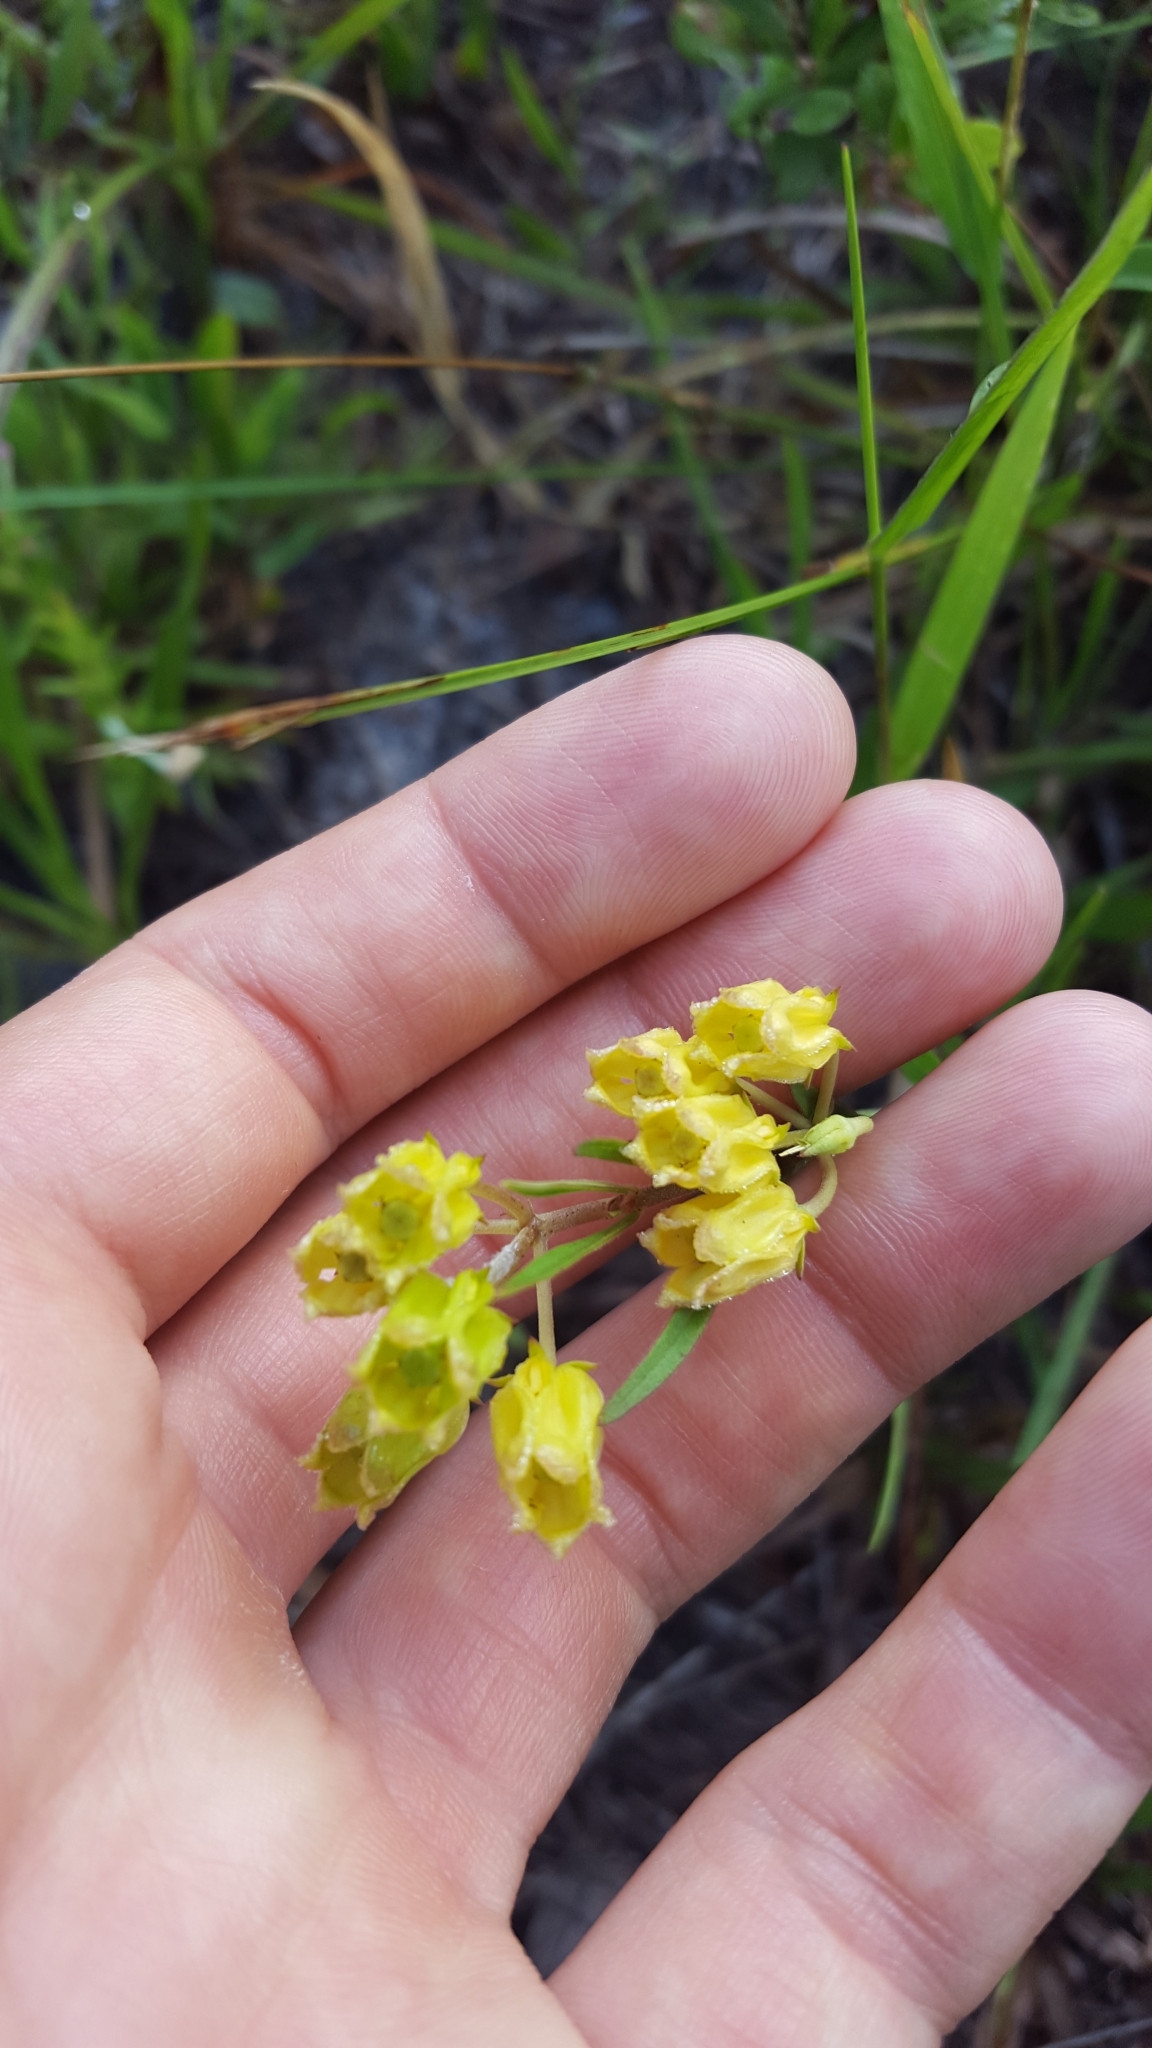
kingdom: Plantae
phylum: Tracheophyta
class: Magnoliopsida
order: Gentianales
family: Apocynaceae
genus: Asclepias
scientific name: Asclepias pedicellata
